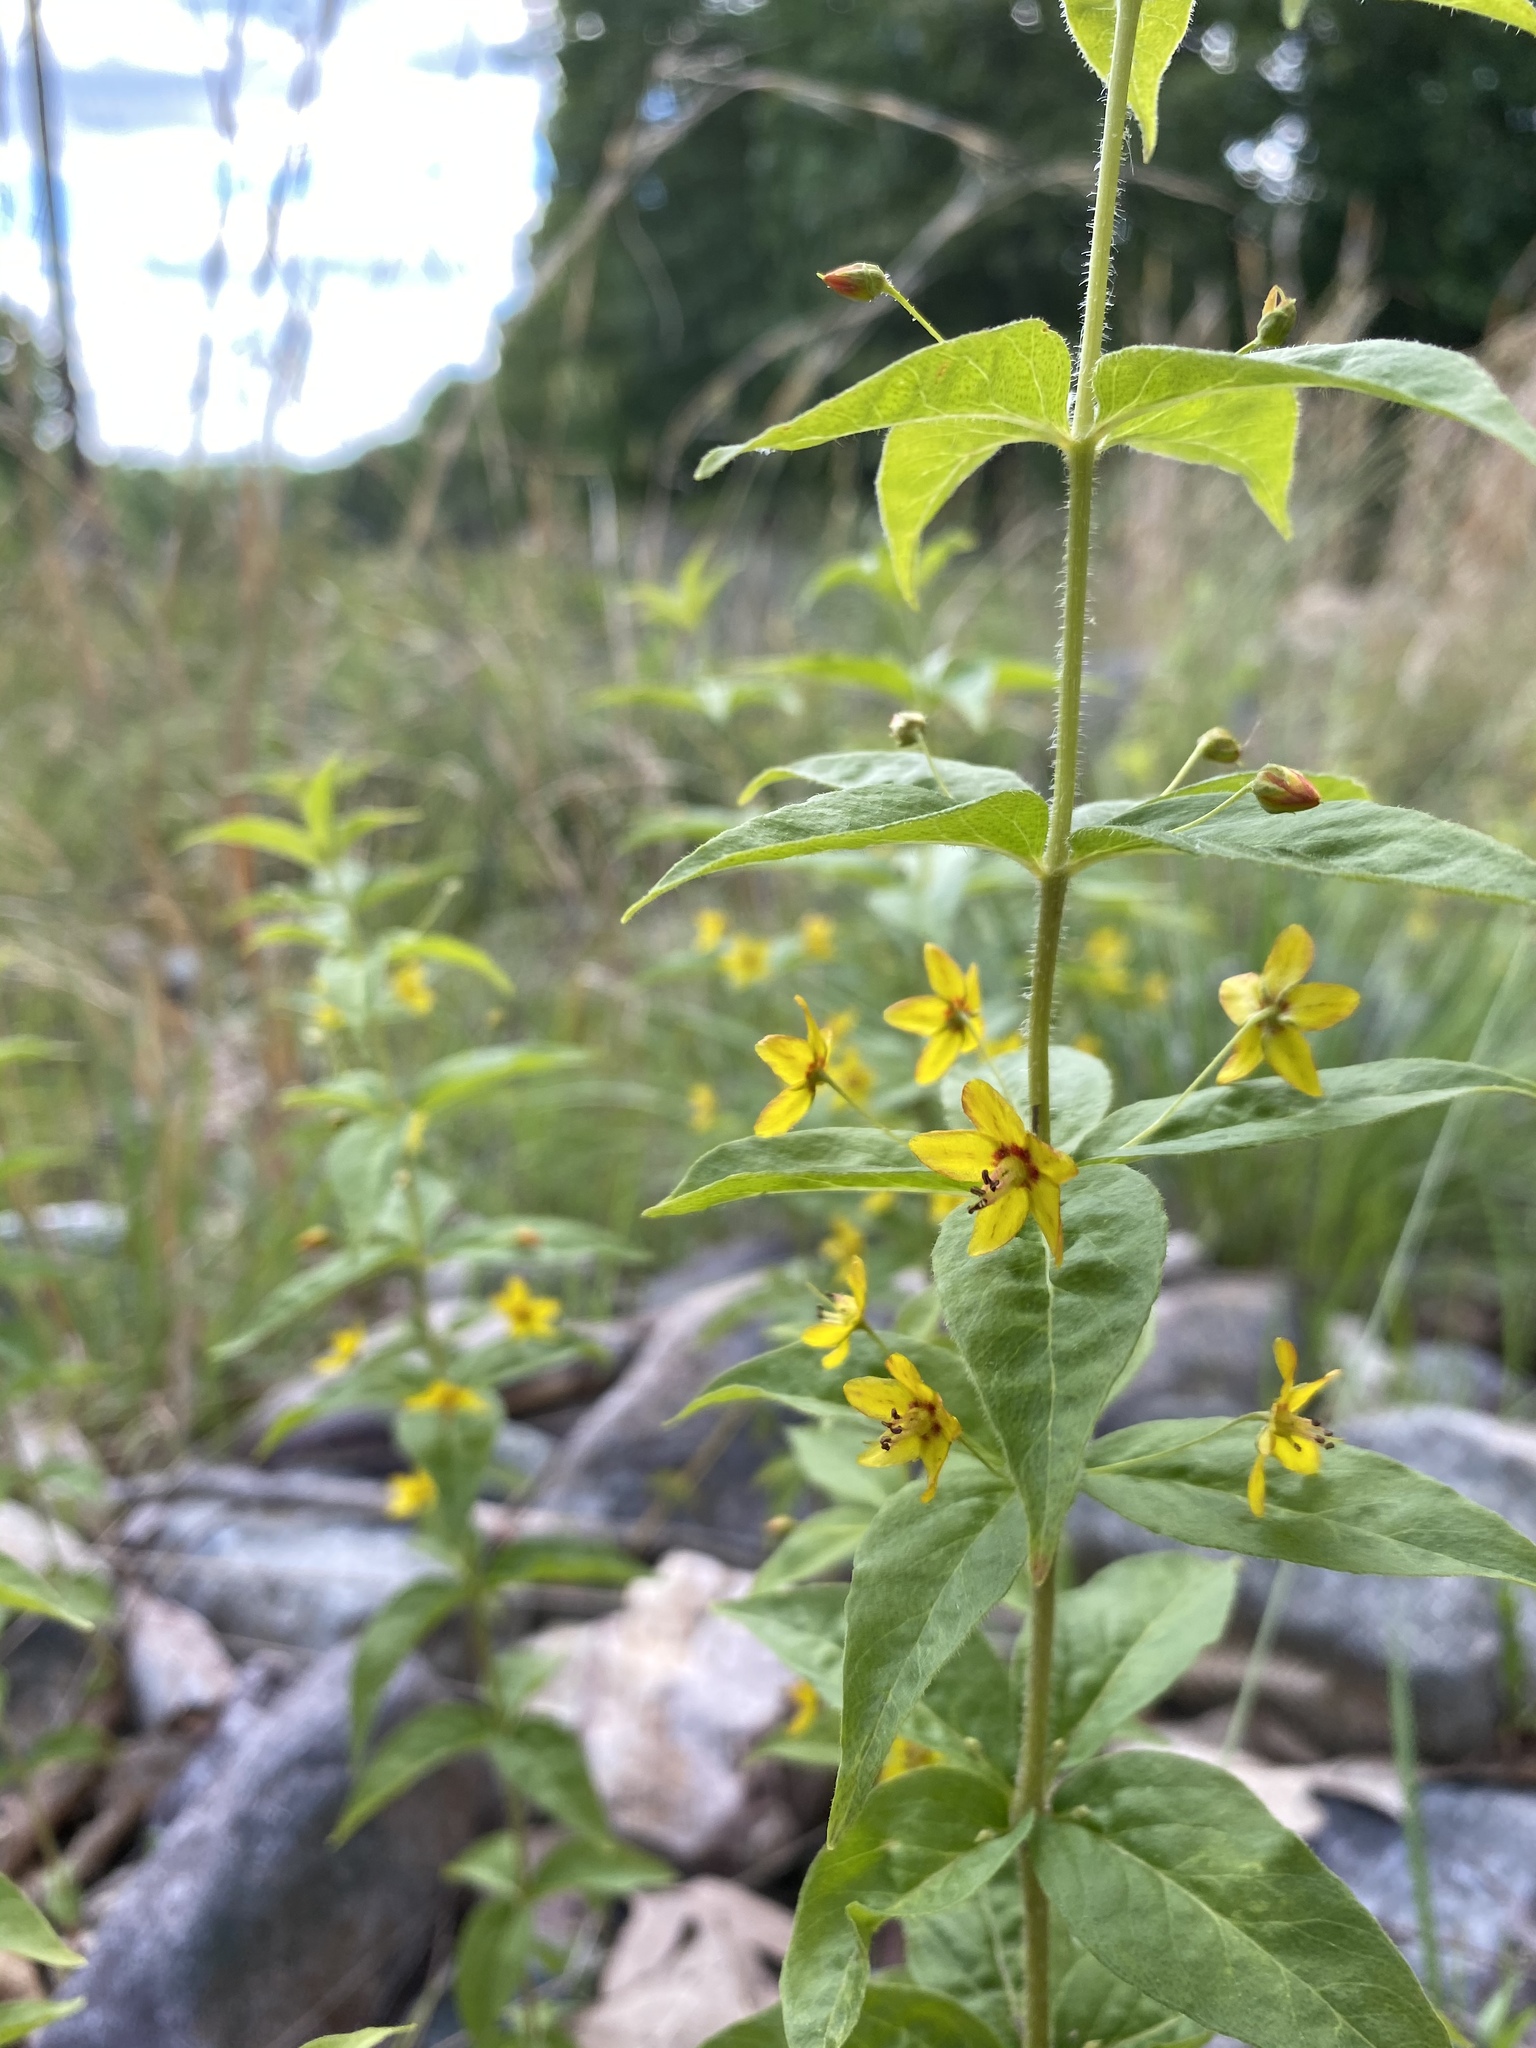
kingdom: Plantae
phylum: Tracheophyta
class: Magnoliopsida
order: Ericales
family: Primulaceae
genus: Lysimachia
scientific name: Lysimachia quadrifolia
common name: Whorled loosestrife
